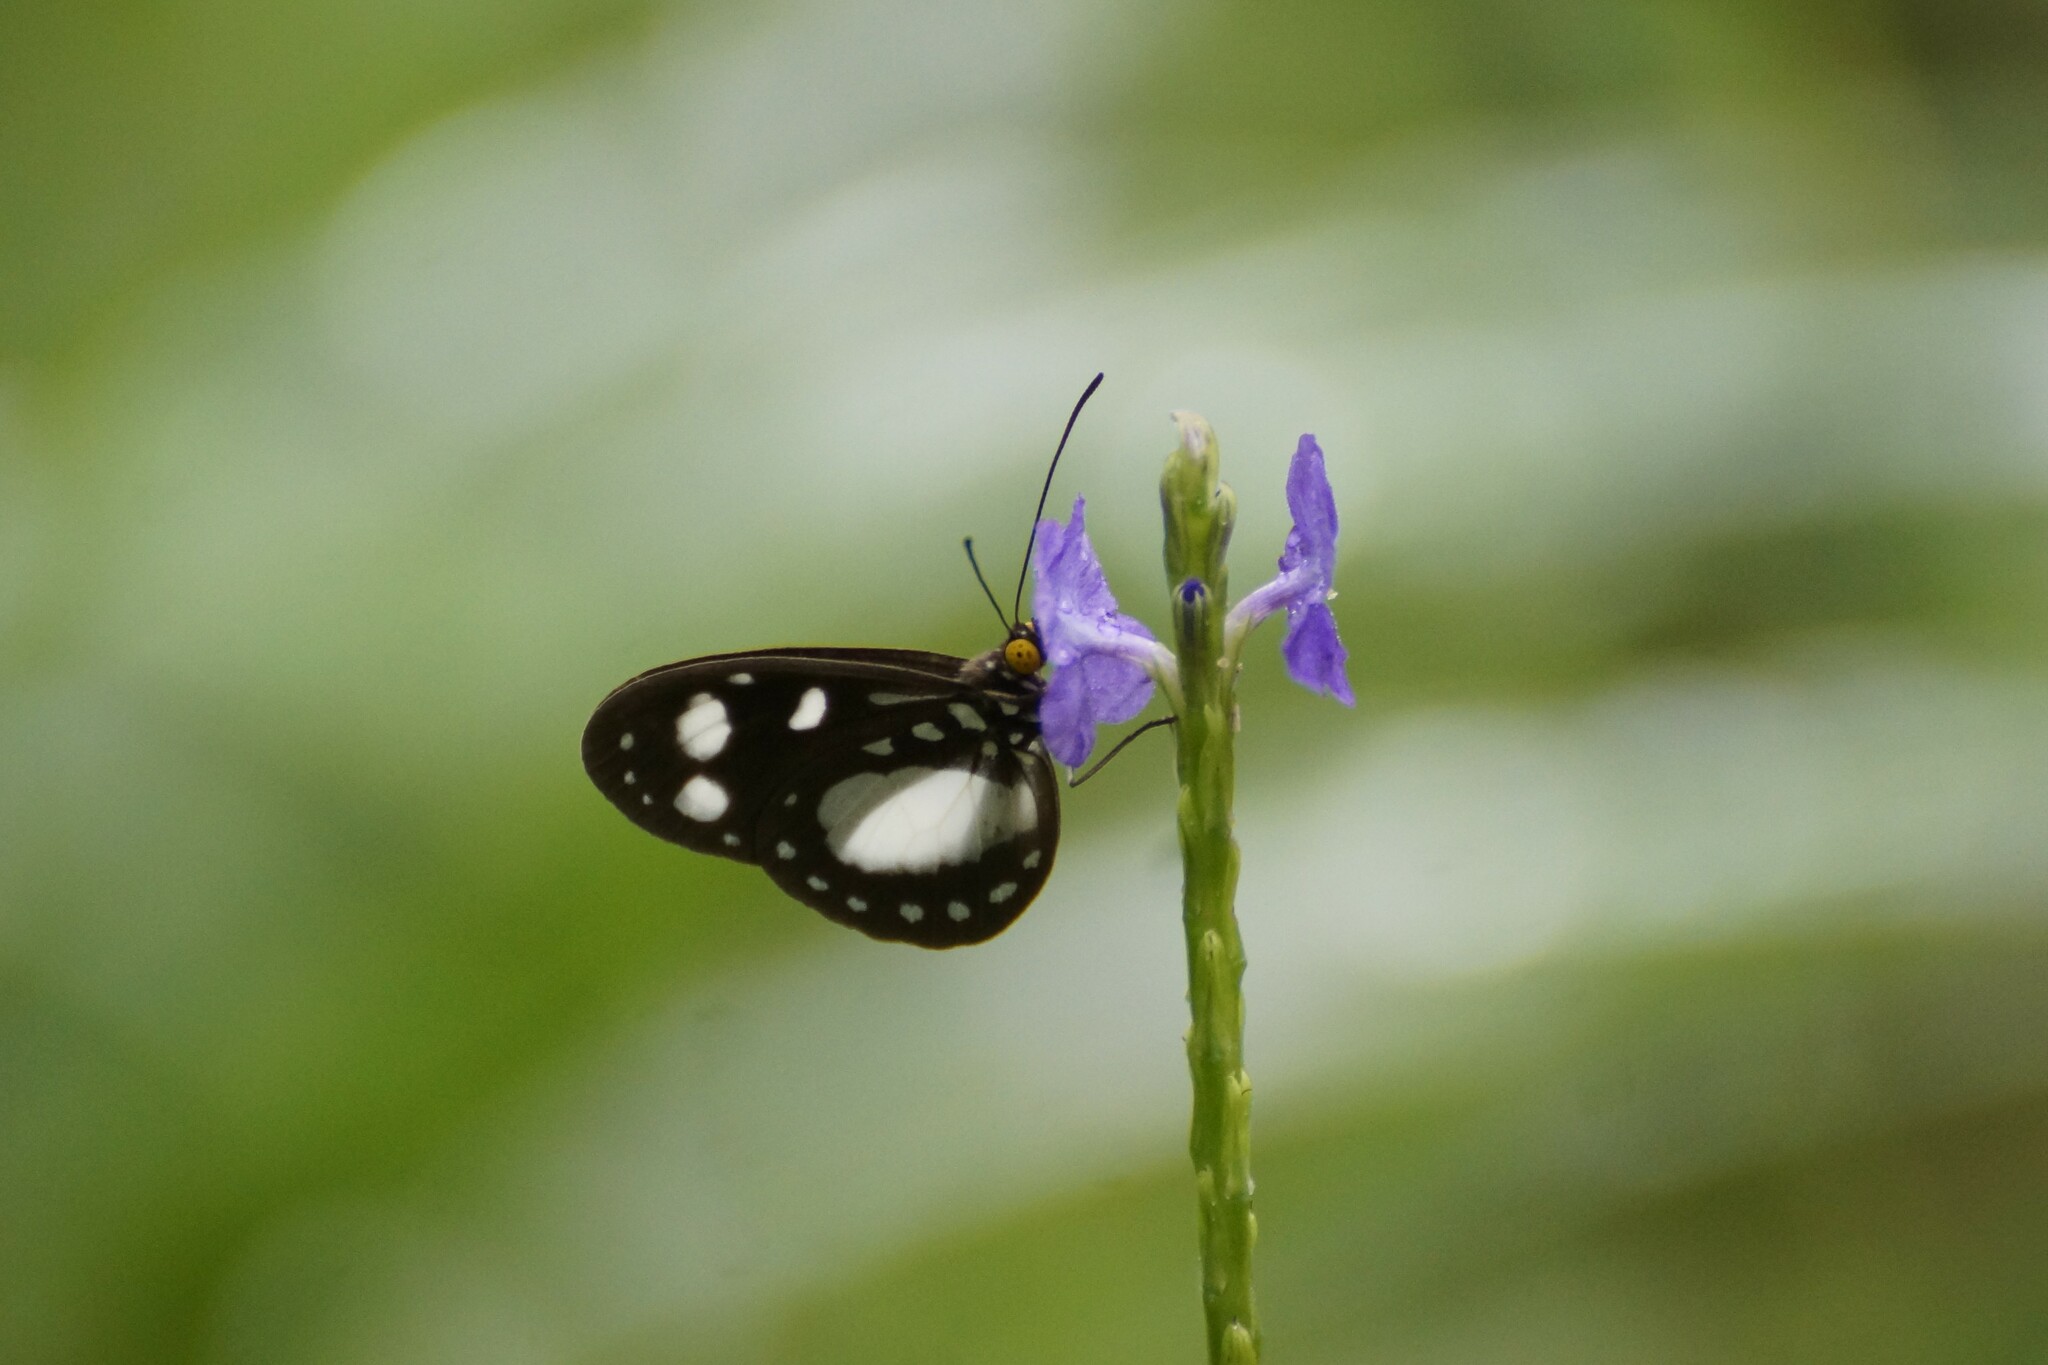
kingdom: Animalia
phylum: Arthropoda
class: Insecta
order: Lepidoptera
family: Nymphalidae
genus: Tellervo
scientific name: Tellervo zoilus
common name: Hamadryad
